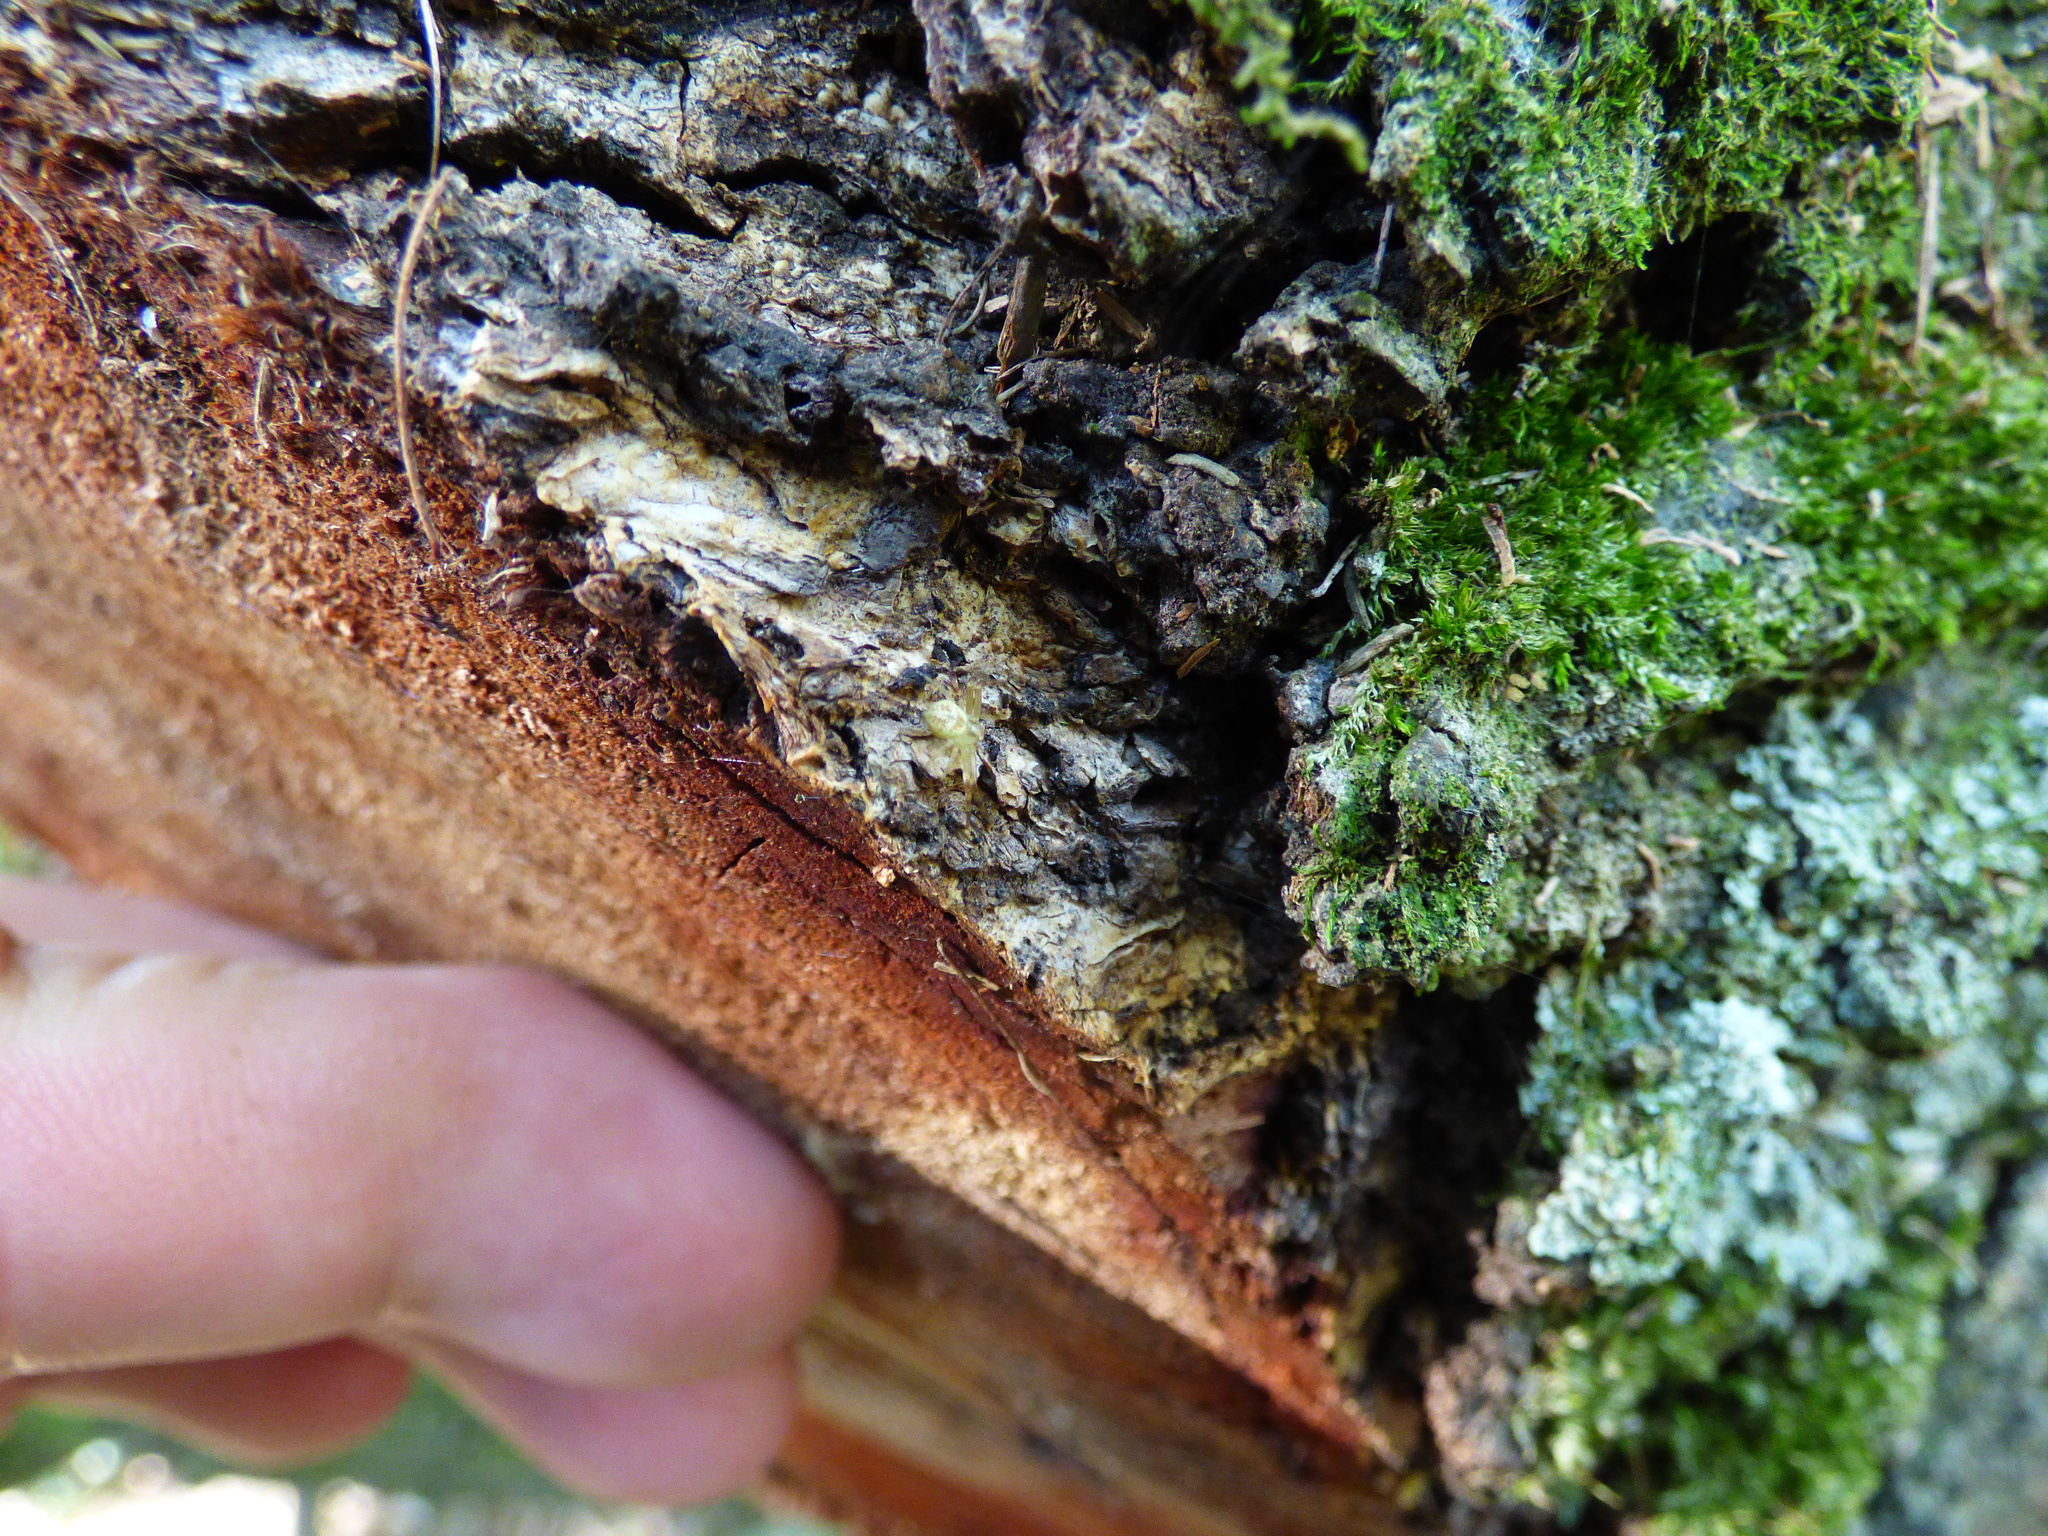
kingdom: Animalia
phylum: Arthropoda
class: Arachnida
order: Araneae
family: Thomisidae
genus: Misumenops
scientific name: Misumenops
